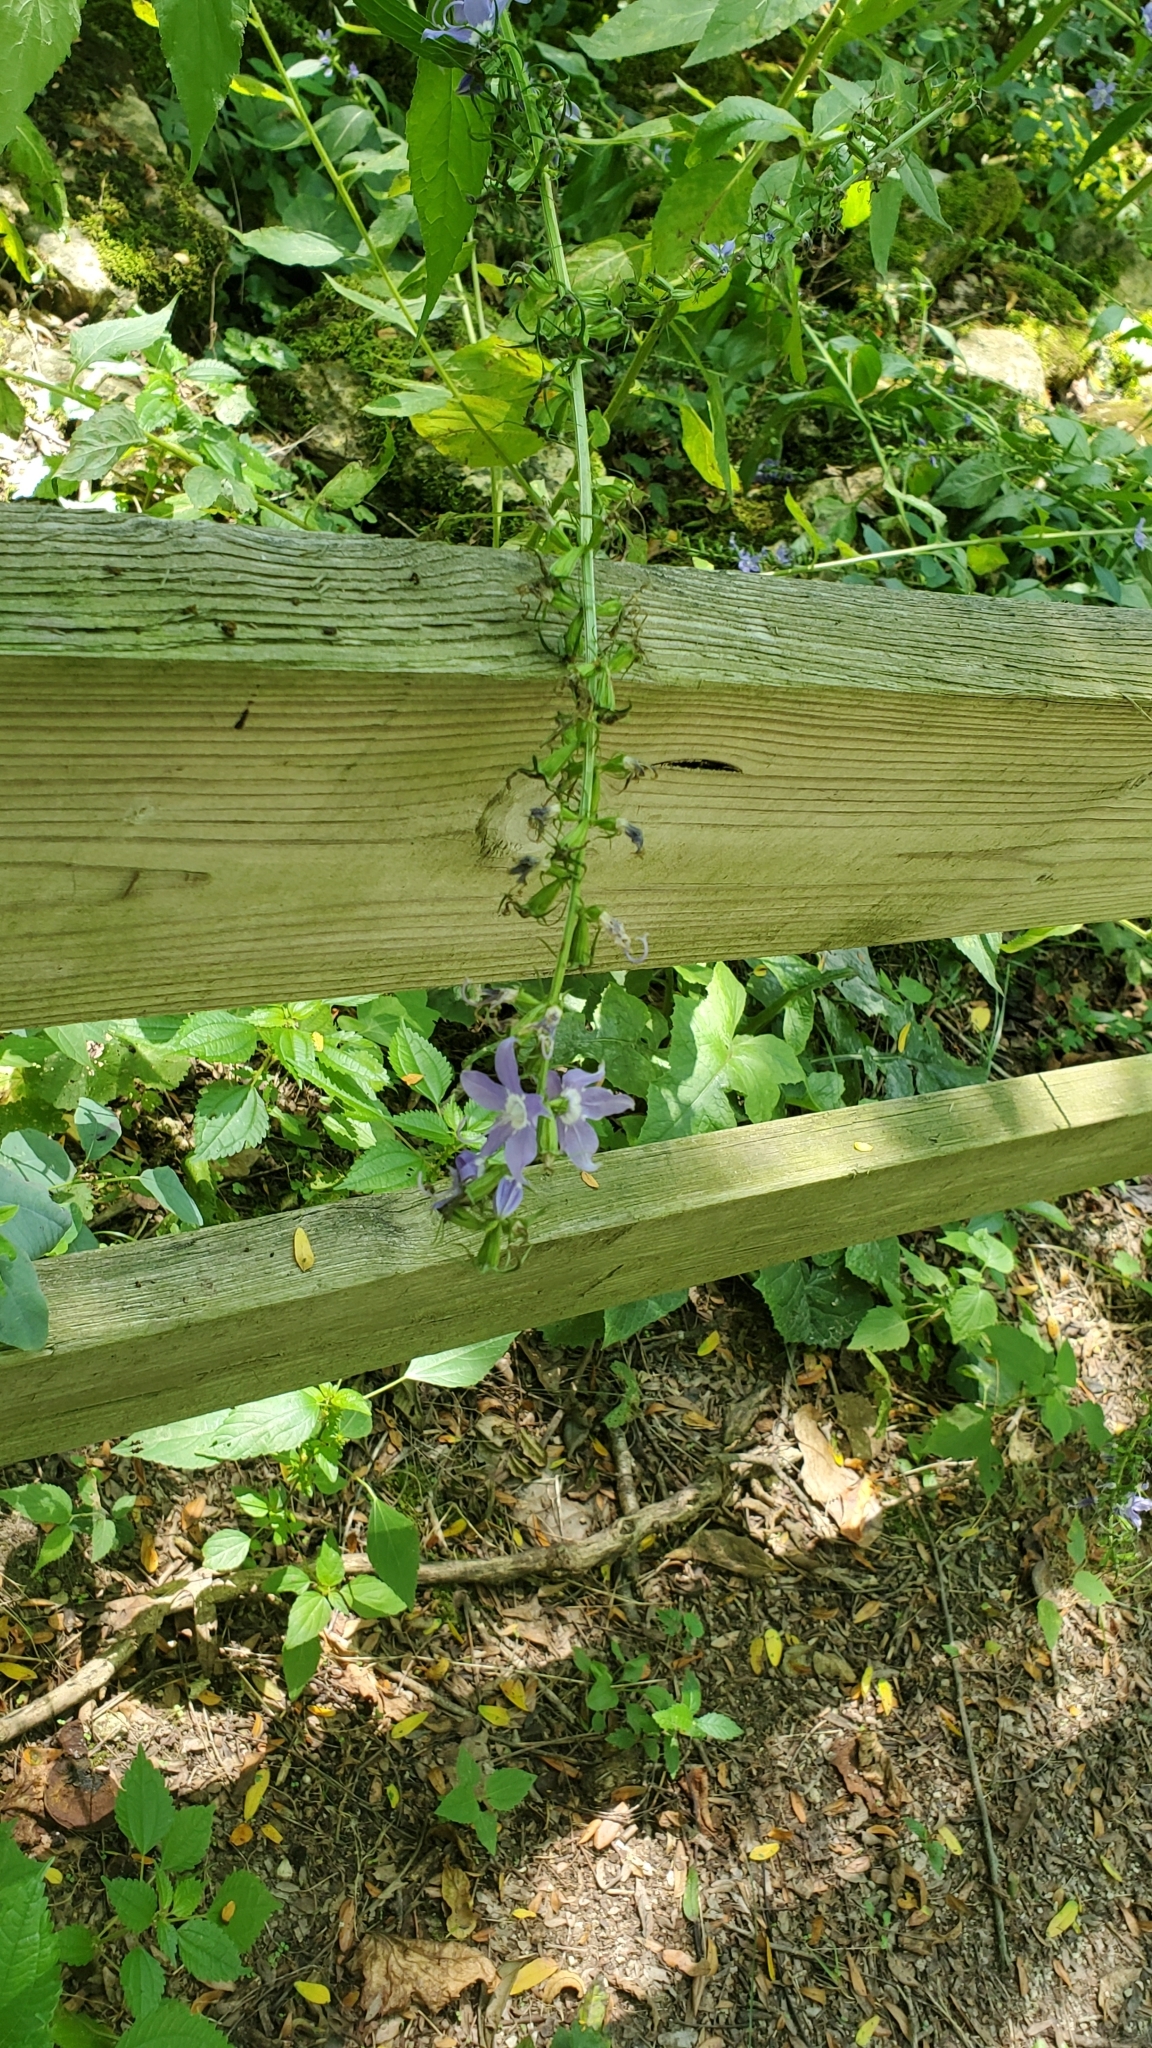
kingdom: Plantae
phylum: Tracheophyta
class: Magnoliopsida
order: Asterales
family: Campanulaceae
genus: Campanulastrum
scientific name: Campanulastrum americanum
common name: American bellflower
